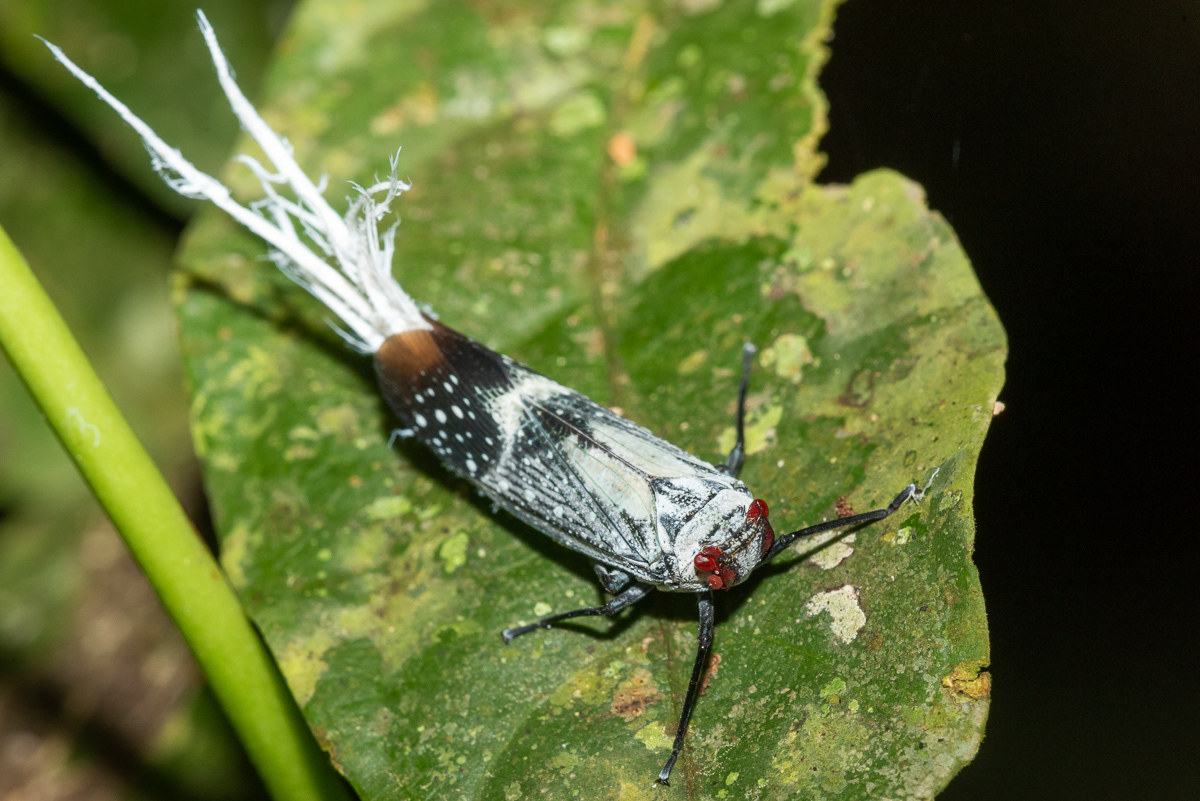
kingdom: Animalia
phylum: Arthropoda
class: Insecta
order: Hemiptera
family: Fulgoridae
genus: Lystra
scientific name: Lystra pulverulenta
